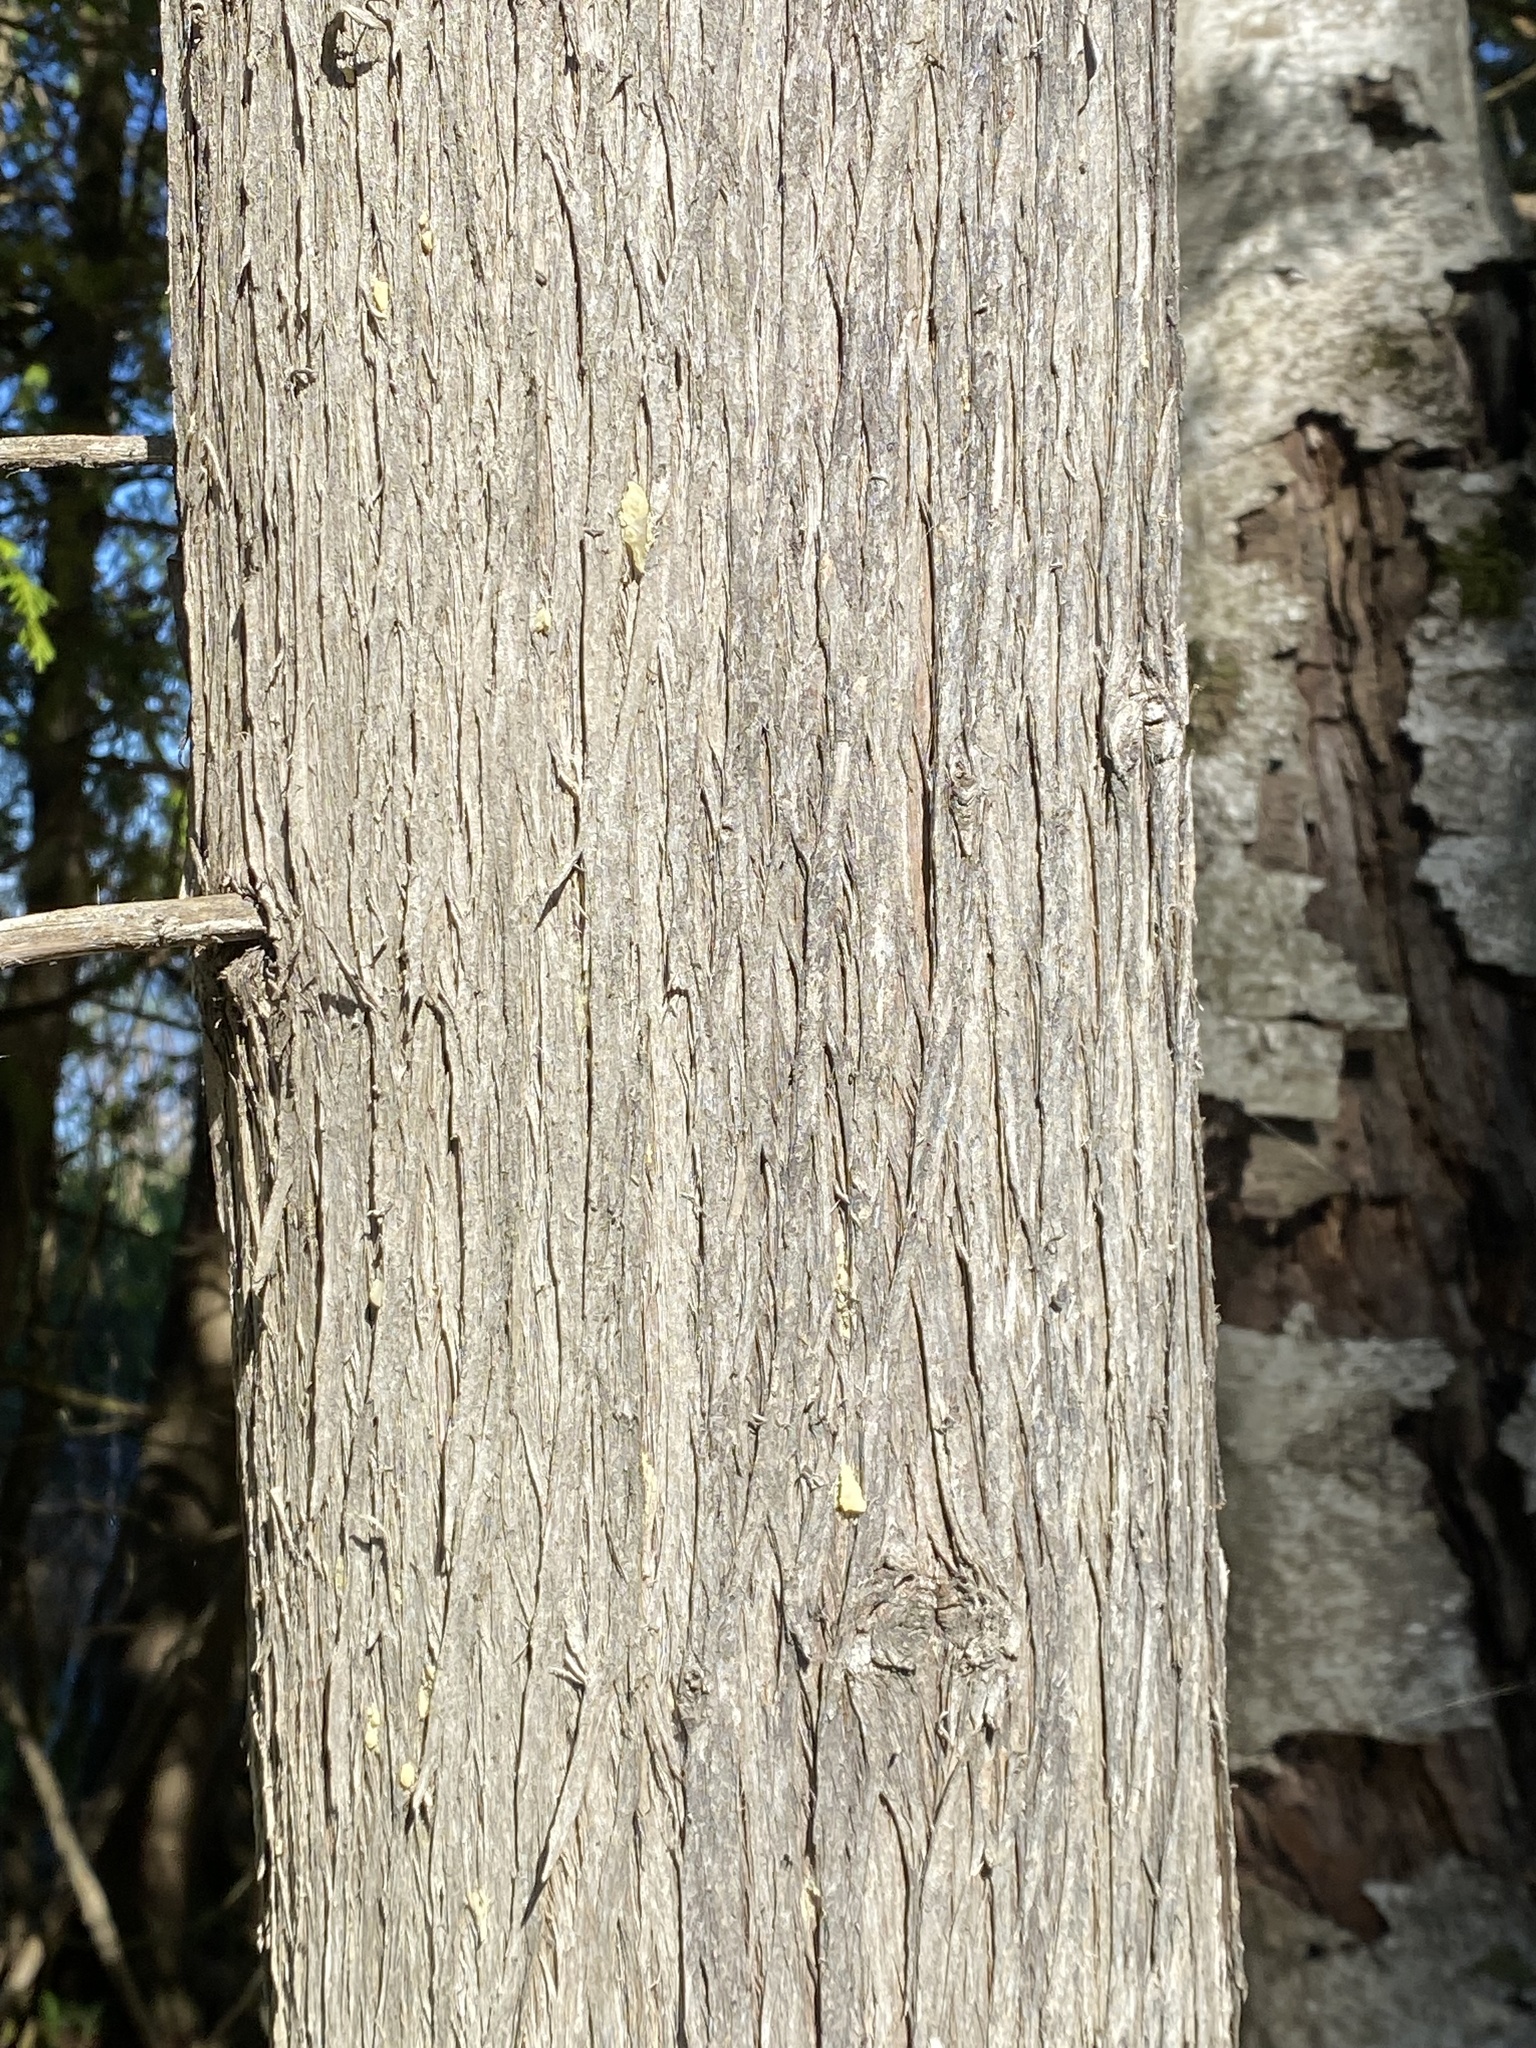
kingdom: Plantae
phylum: Tracheophyta
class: Pinopsida
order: Pinales
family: Cupressaceae
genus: Thuja
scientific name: Thuja occidentalis
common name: Northern white-cedar
